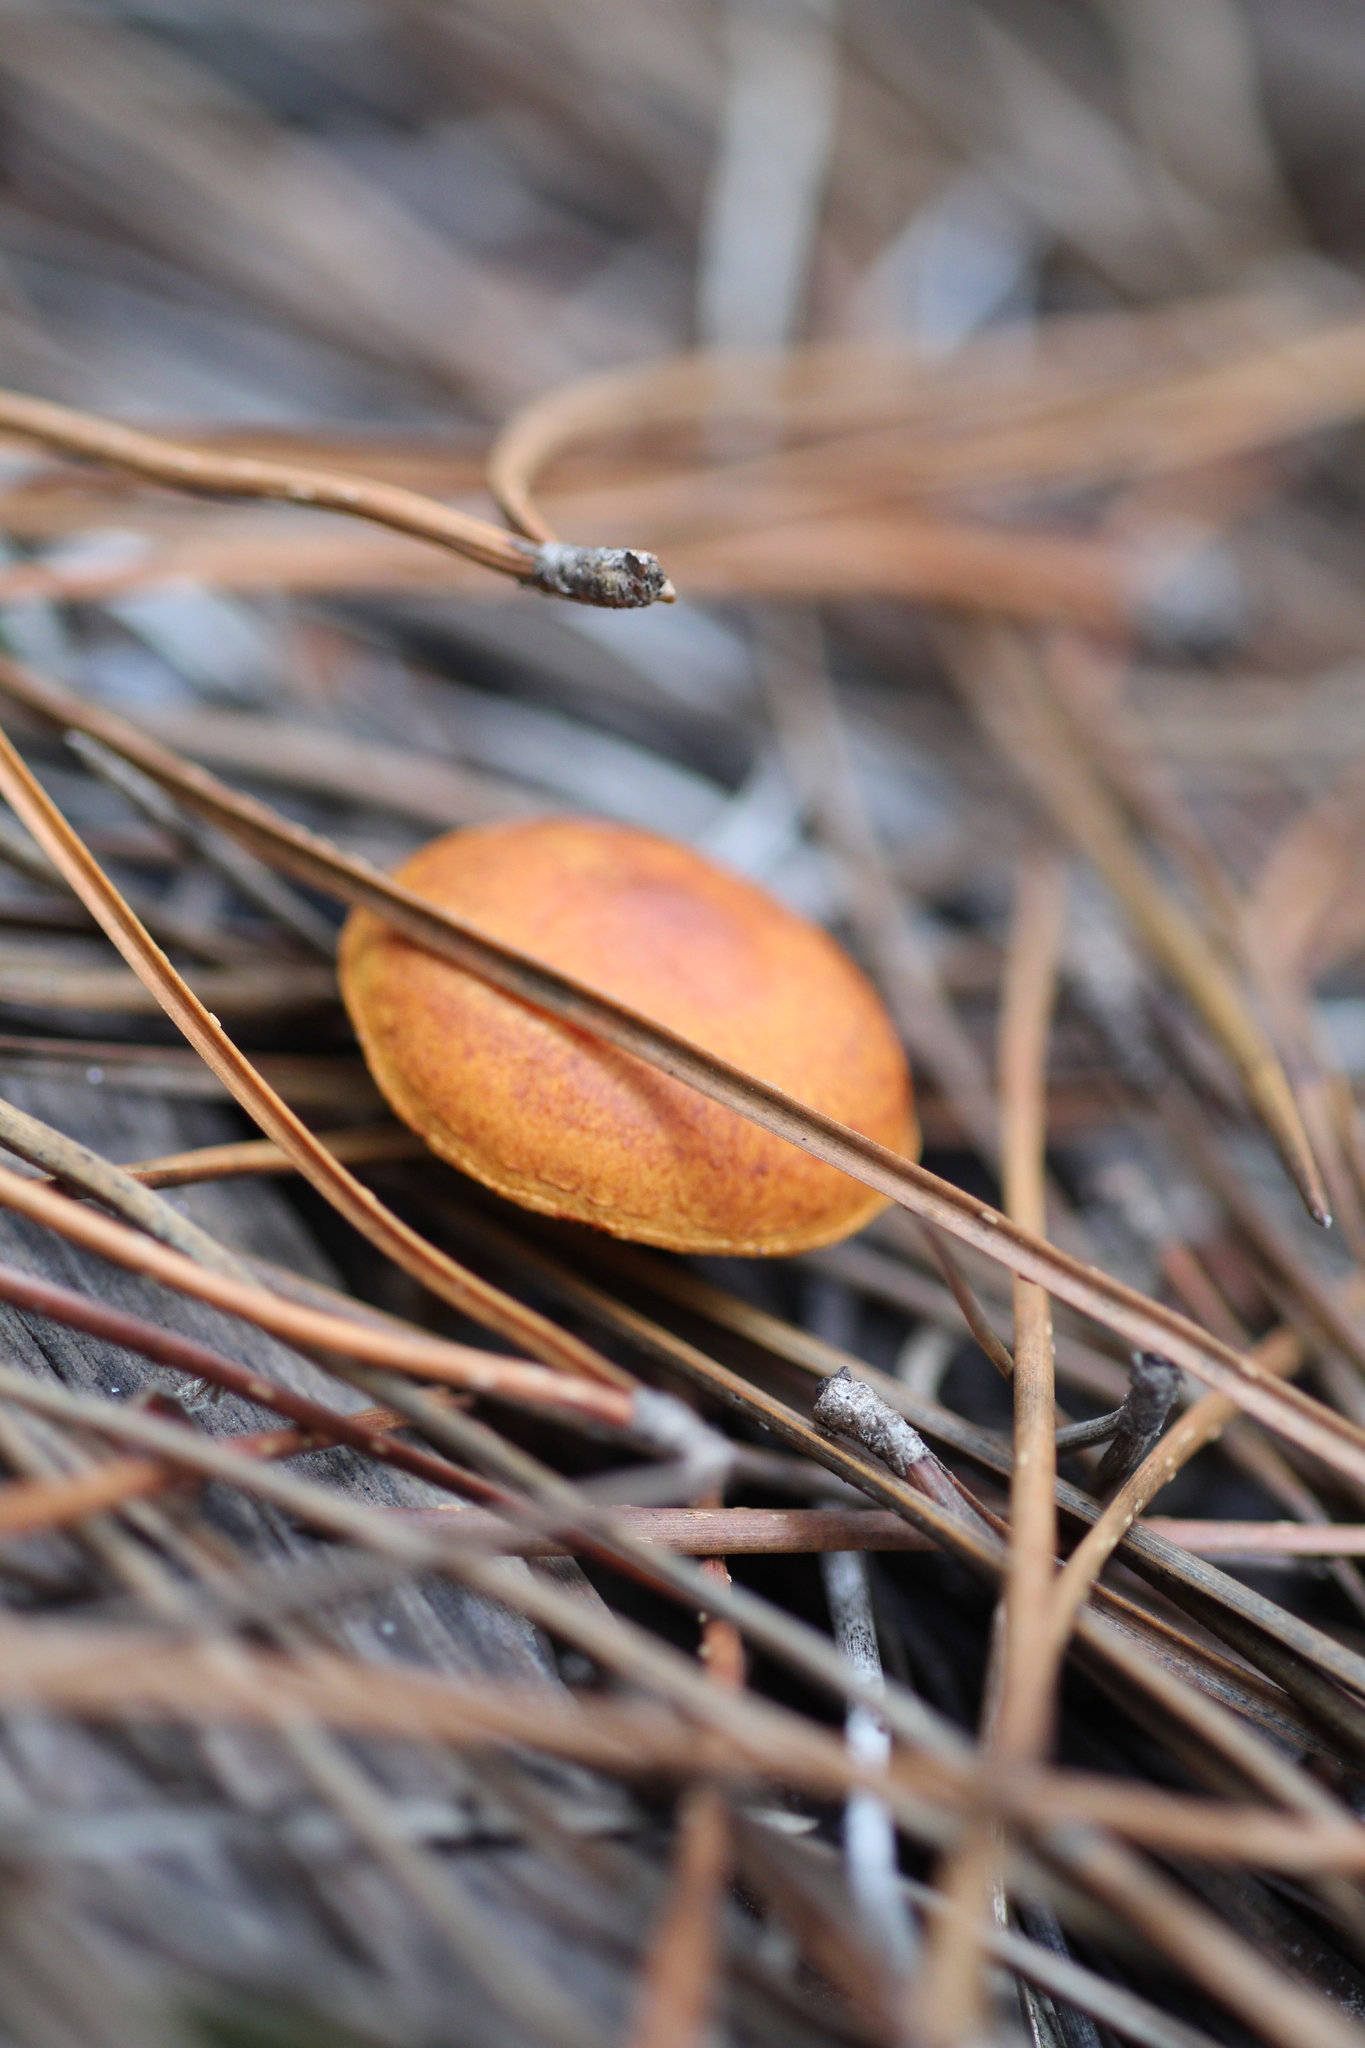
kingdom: Fungi
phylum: Basidiomycota
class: Agaricomycetes
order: Agaricales
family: Strophariaceae
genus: Pholiota
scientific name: Pholiota communis
